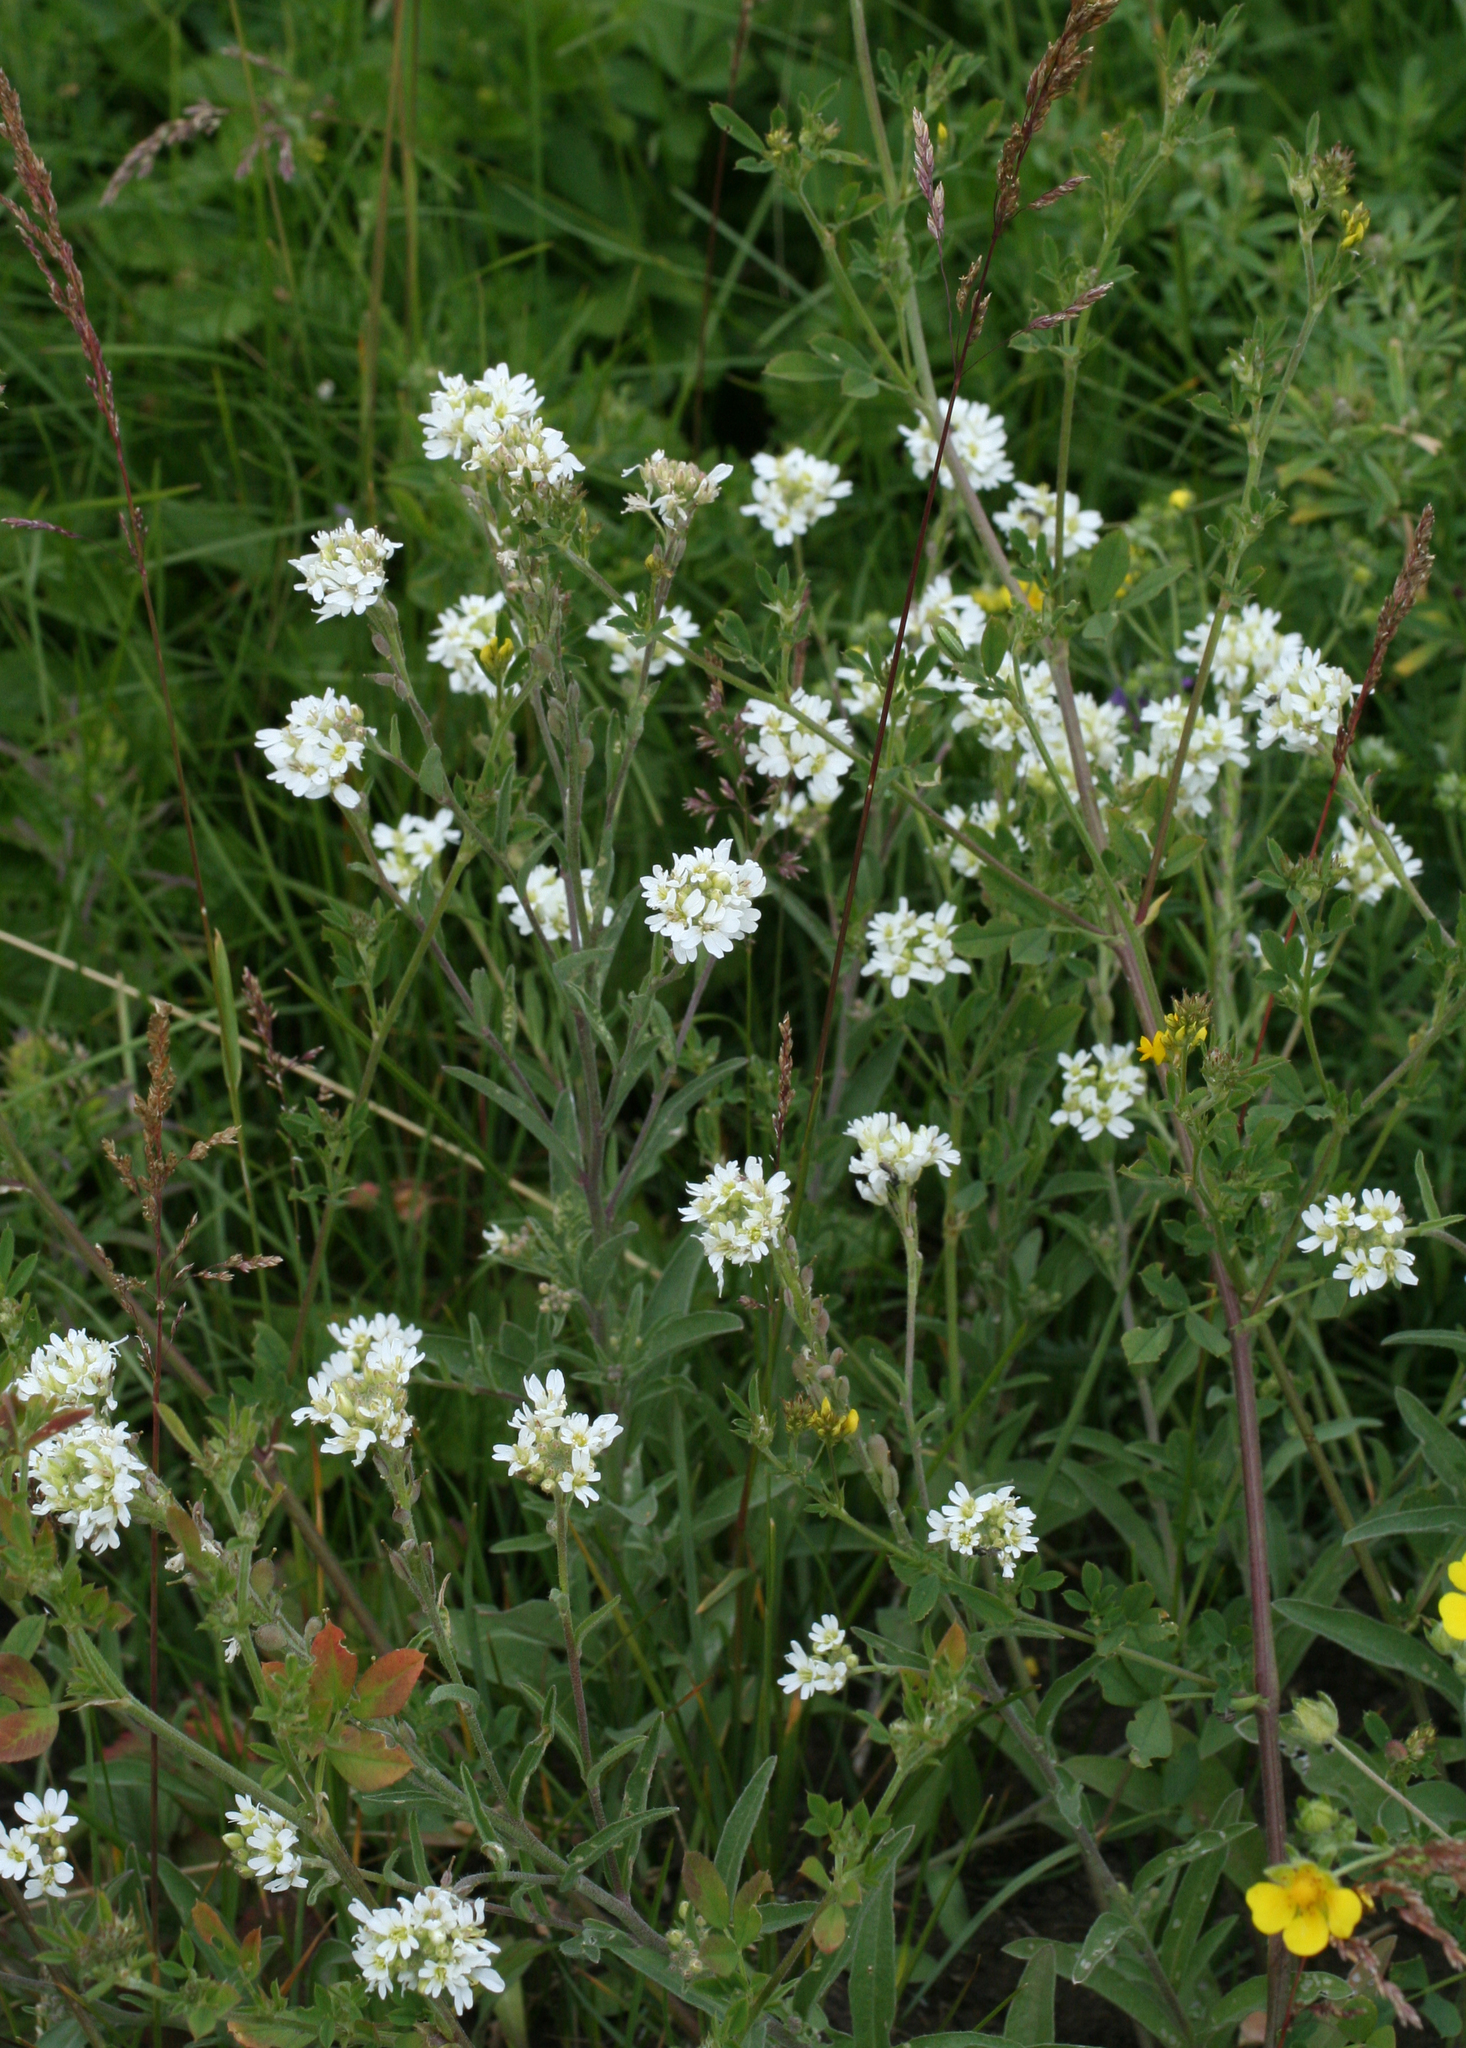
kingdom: Plantae
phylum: Tracheophyta
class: Magnoliopsida
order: Brassicales
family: Brassicaceae
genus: Berteroa
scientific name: Berteroa incana
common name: Hoary alison
